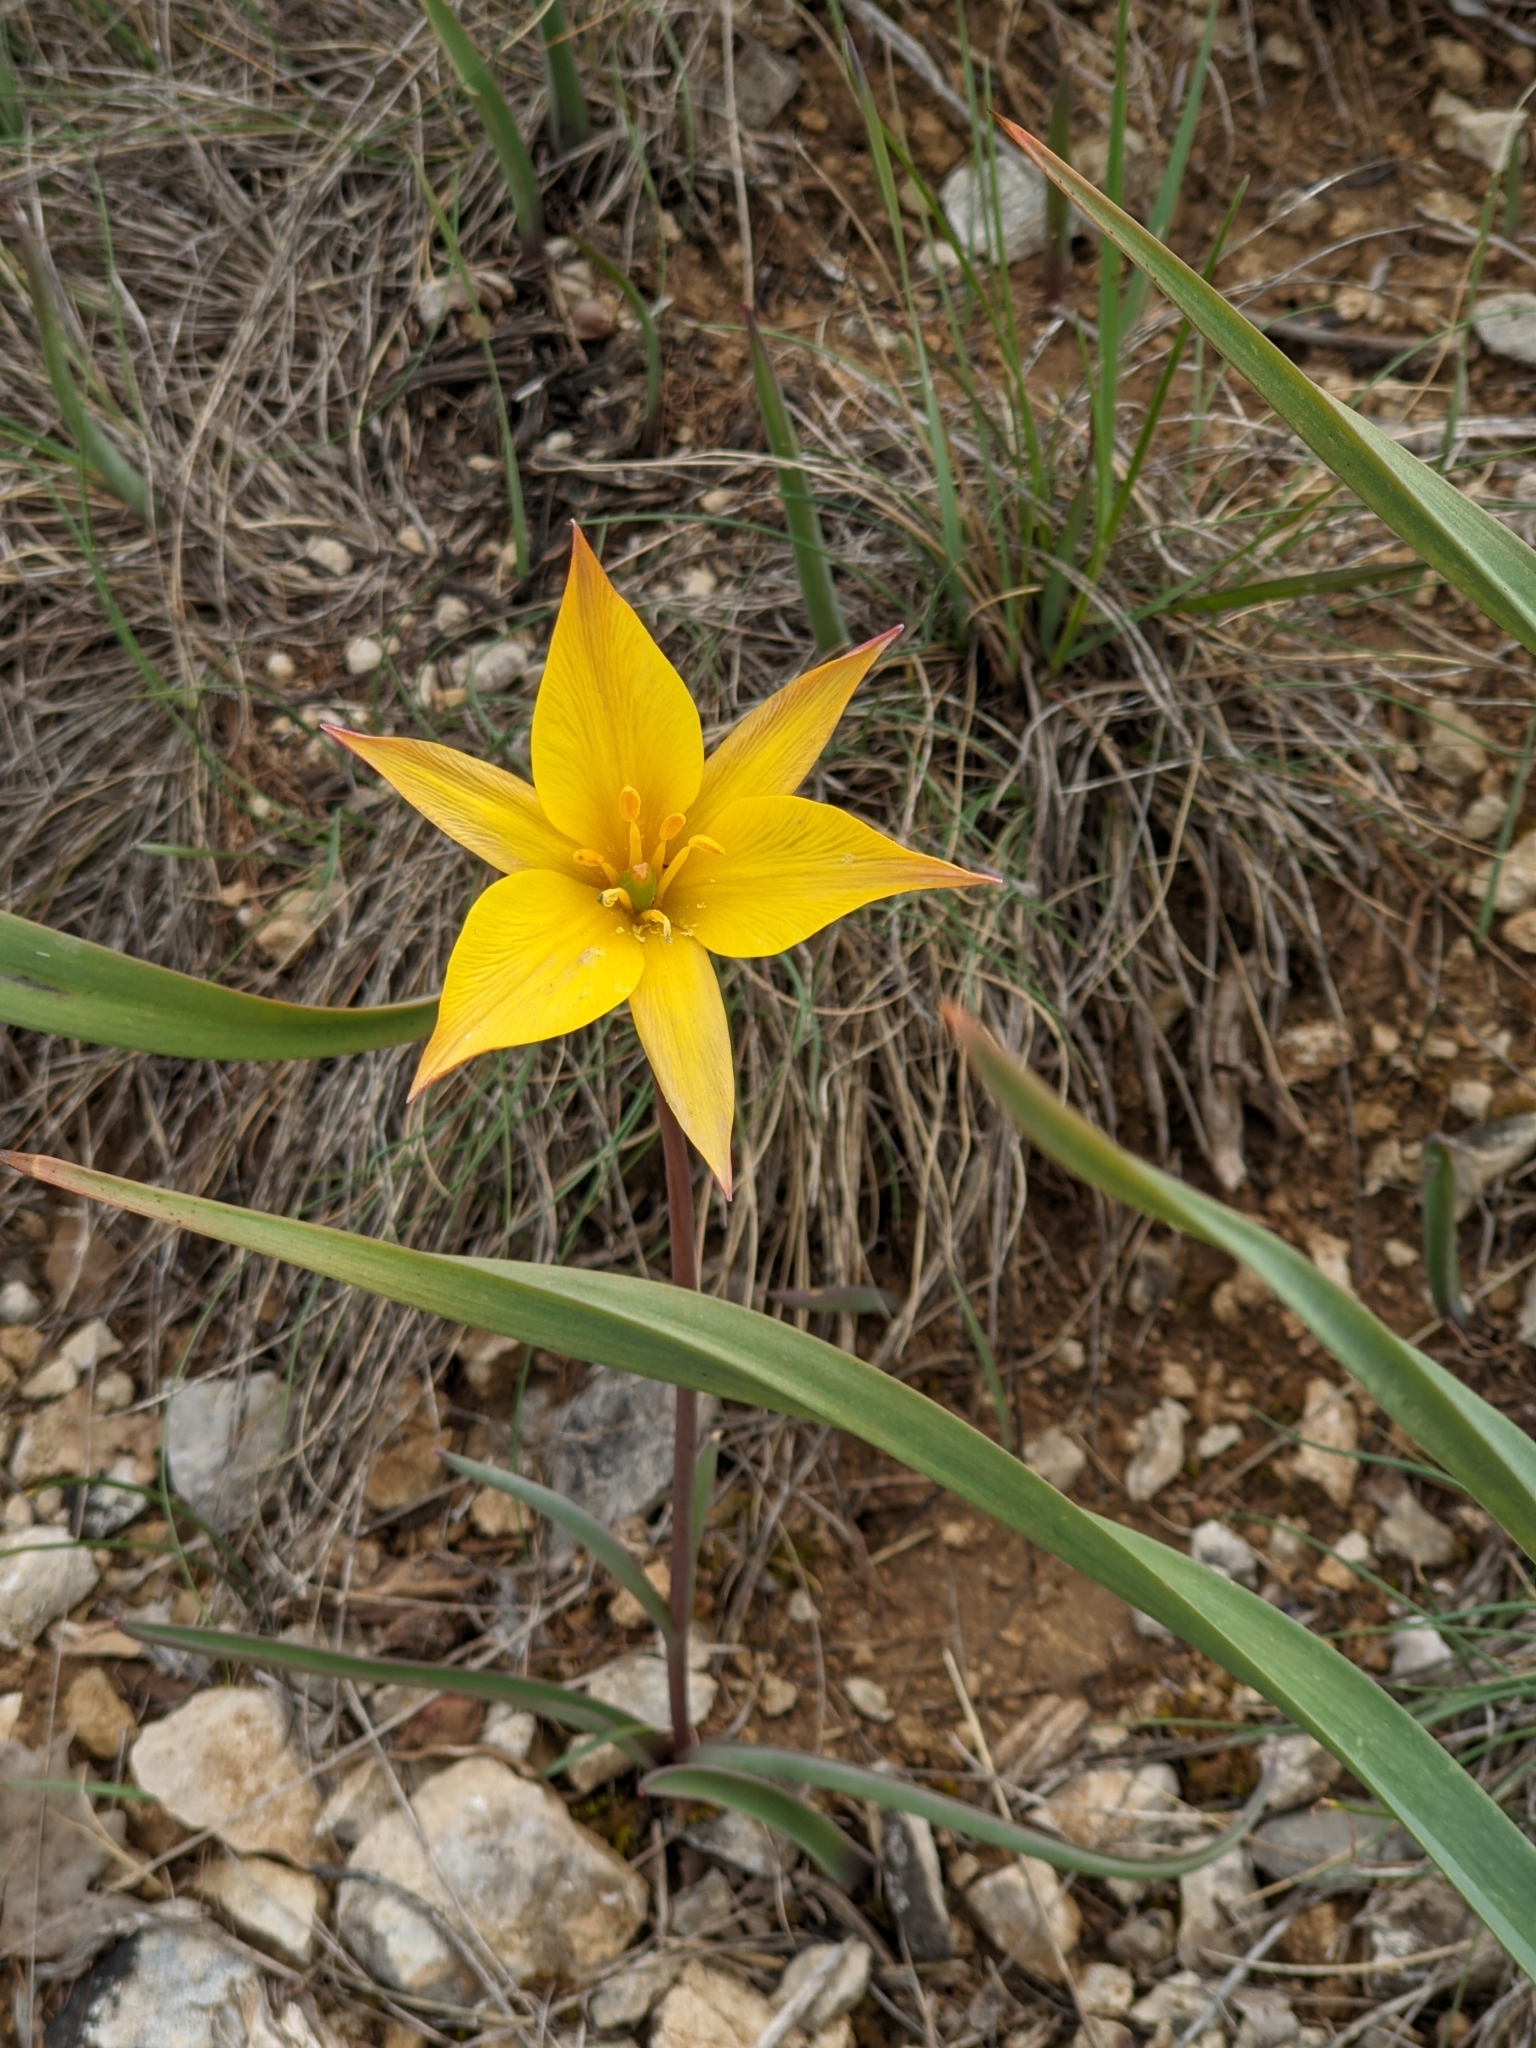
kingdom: Plantae
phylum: Tracheophyta
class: Liliopsida
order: Liliales
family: Liliaceae
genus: Tulipa
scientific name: Tulipa sylvestris
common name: Wild tulip
